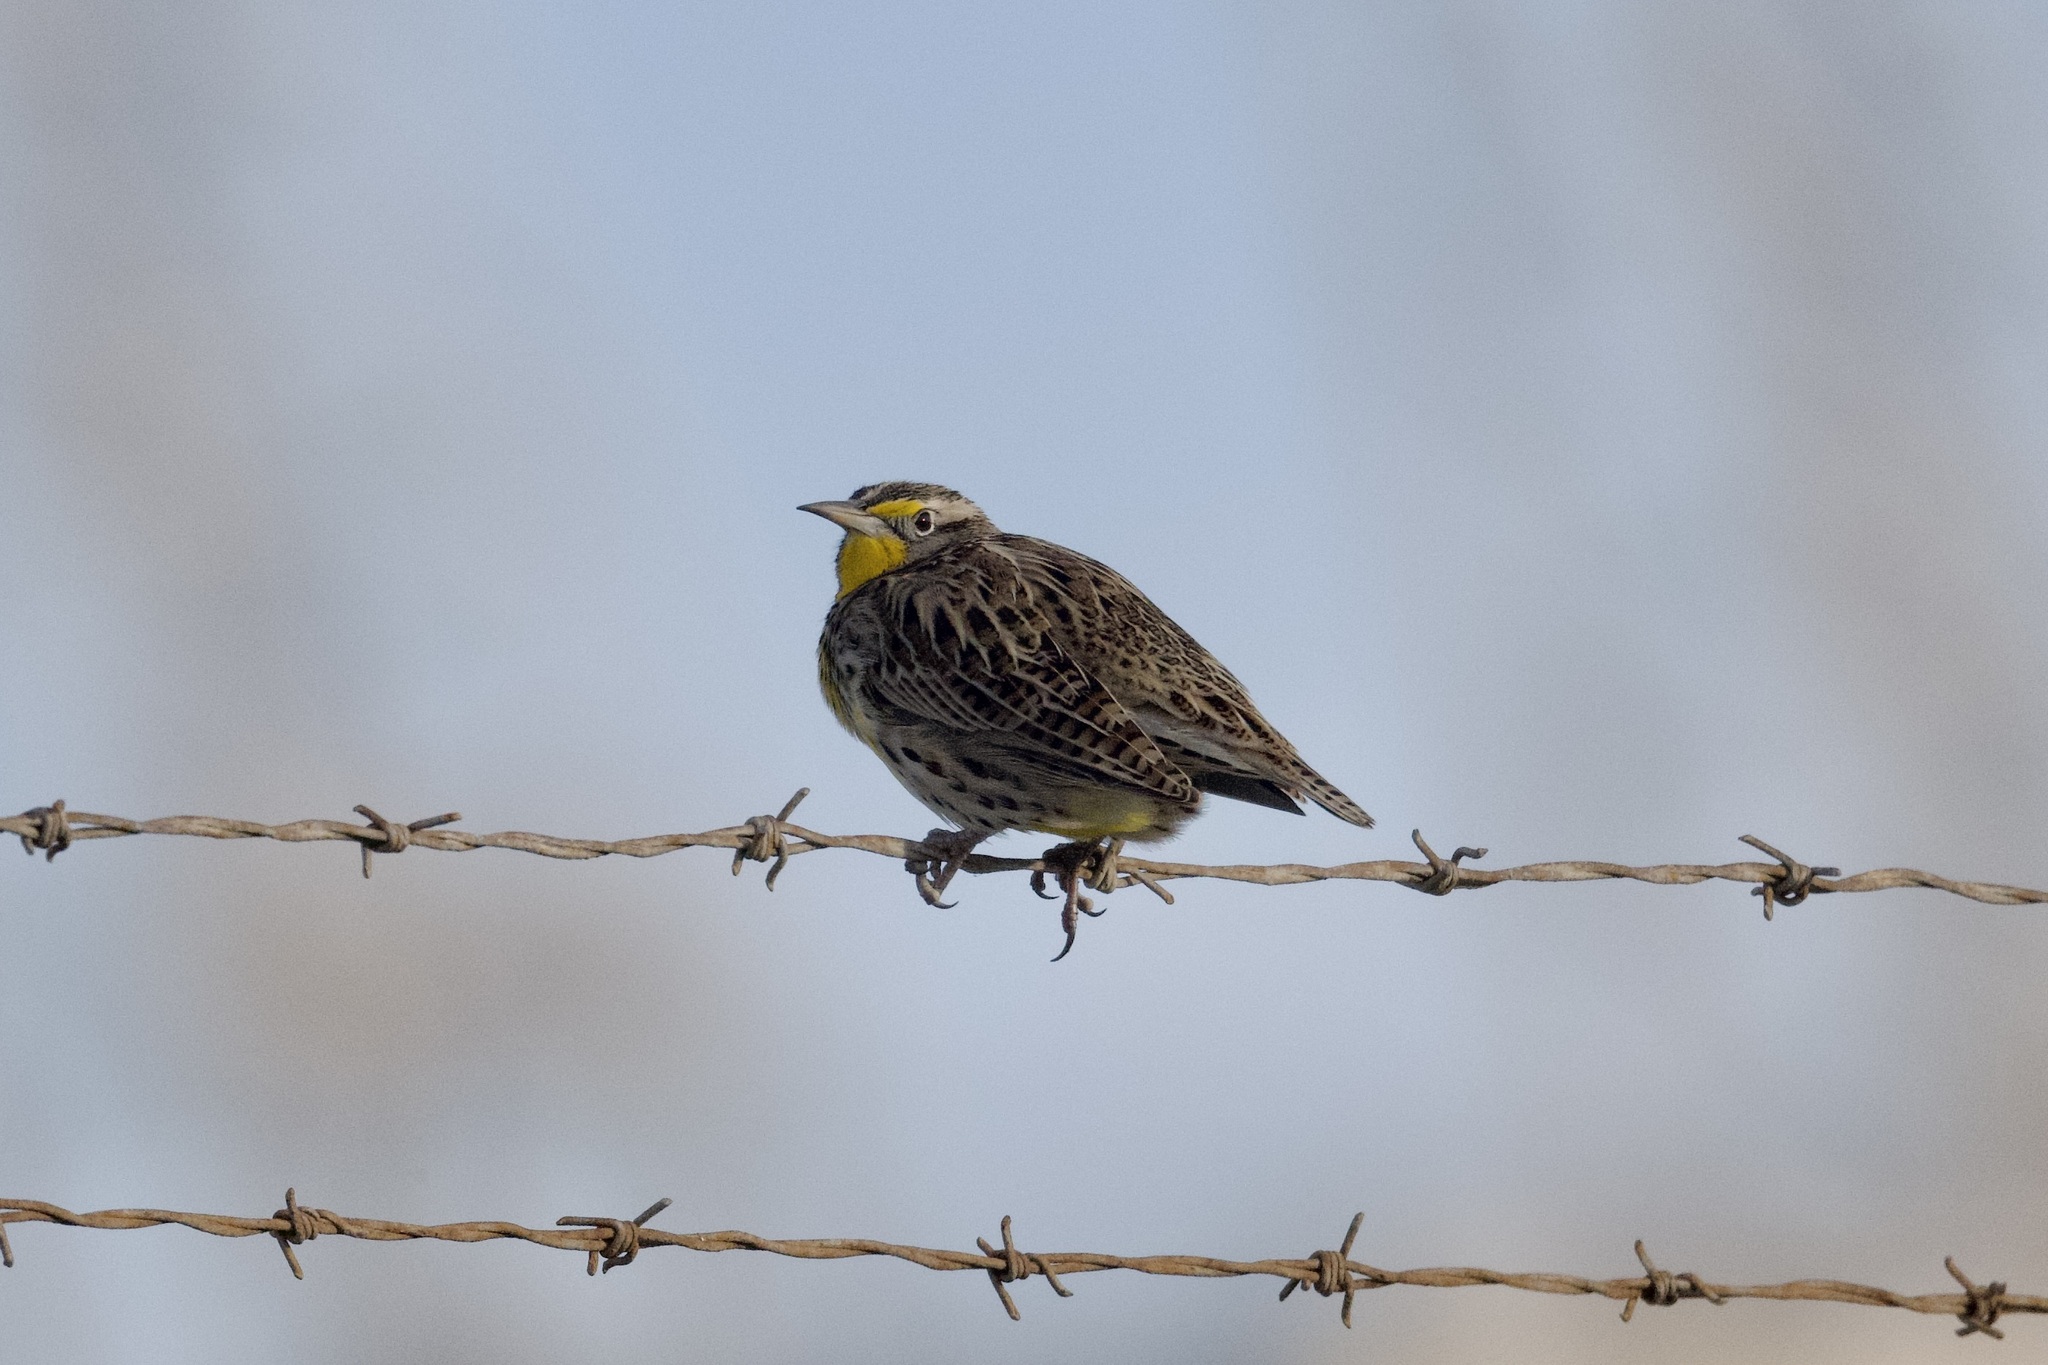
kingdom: Animalia
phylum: Chordata
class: Aves
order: Passeriformes
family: Icteridae
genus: Sturnella
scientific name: Sturnella neglecta
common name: Western meadowlark
